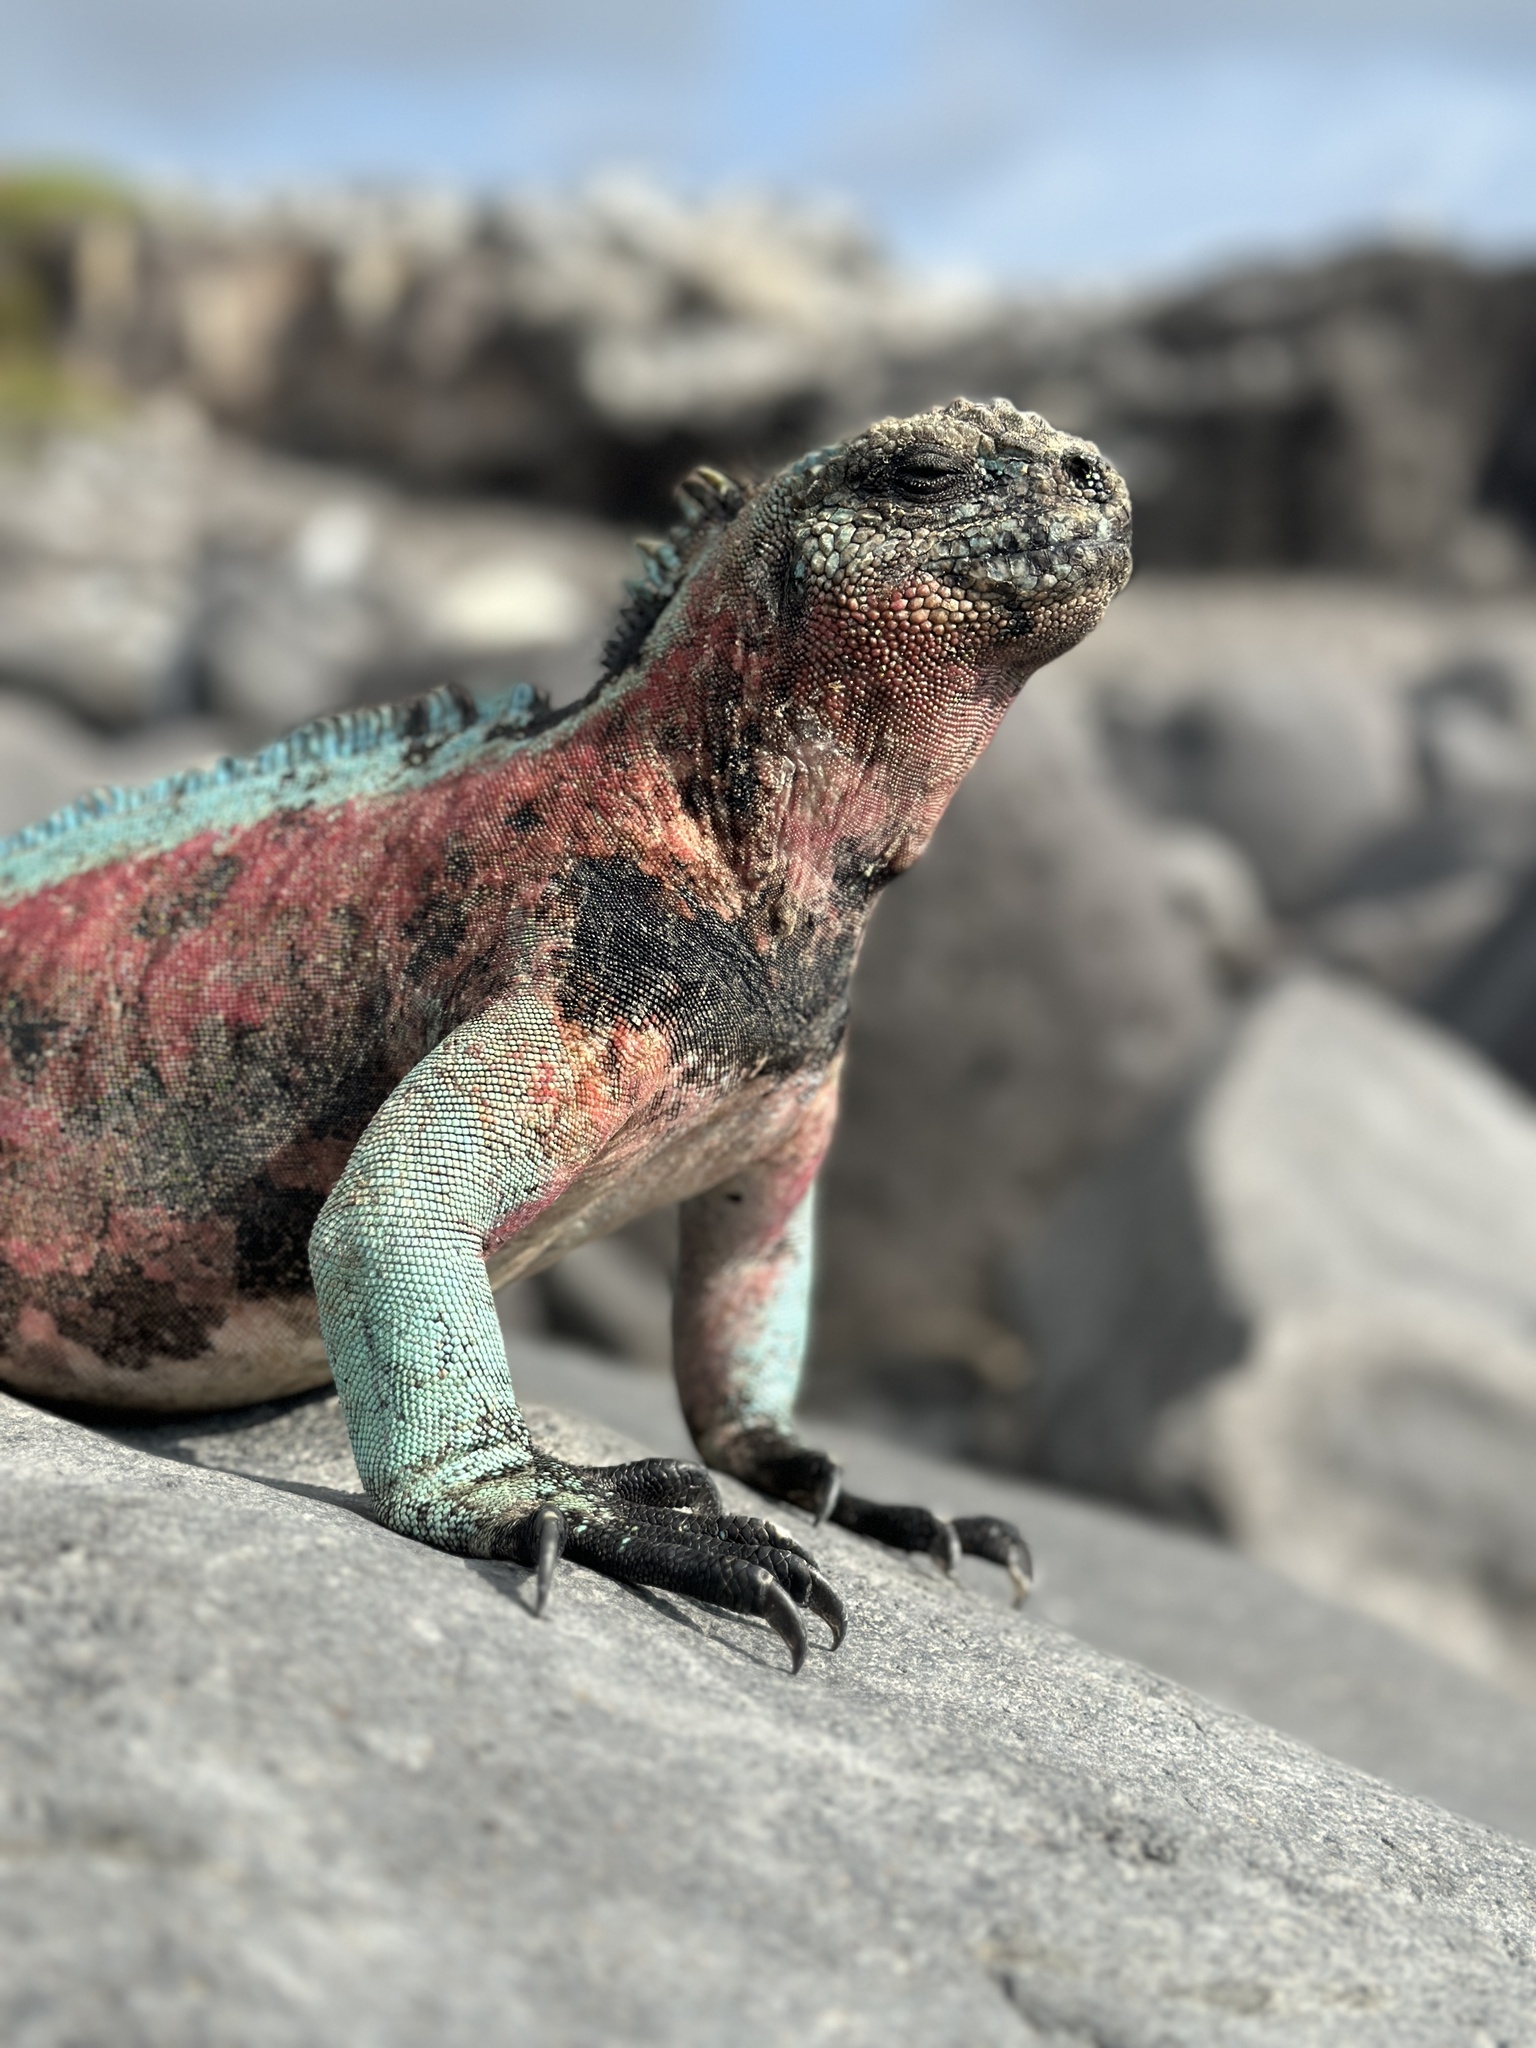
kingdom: Animalia
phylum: Chordata
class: Squamata
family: Iguanidae
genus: Amblyrhynchus
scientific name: Amblyrhynchus cristatus
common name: Marine iguana
